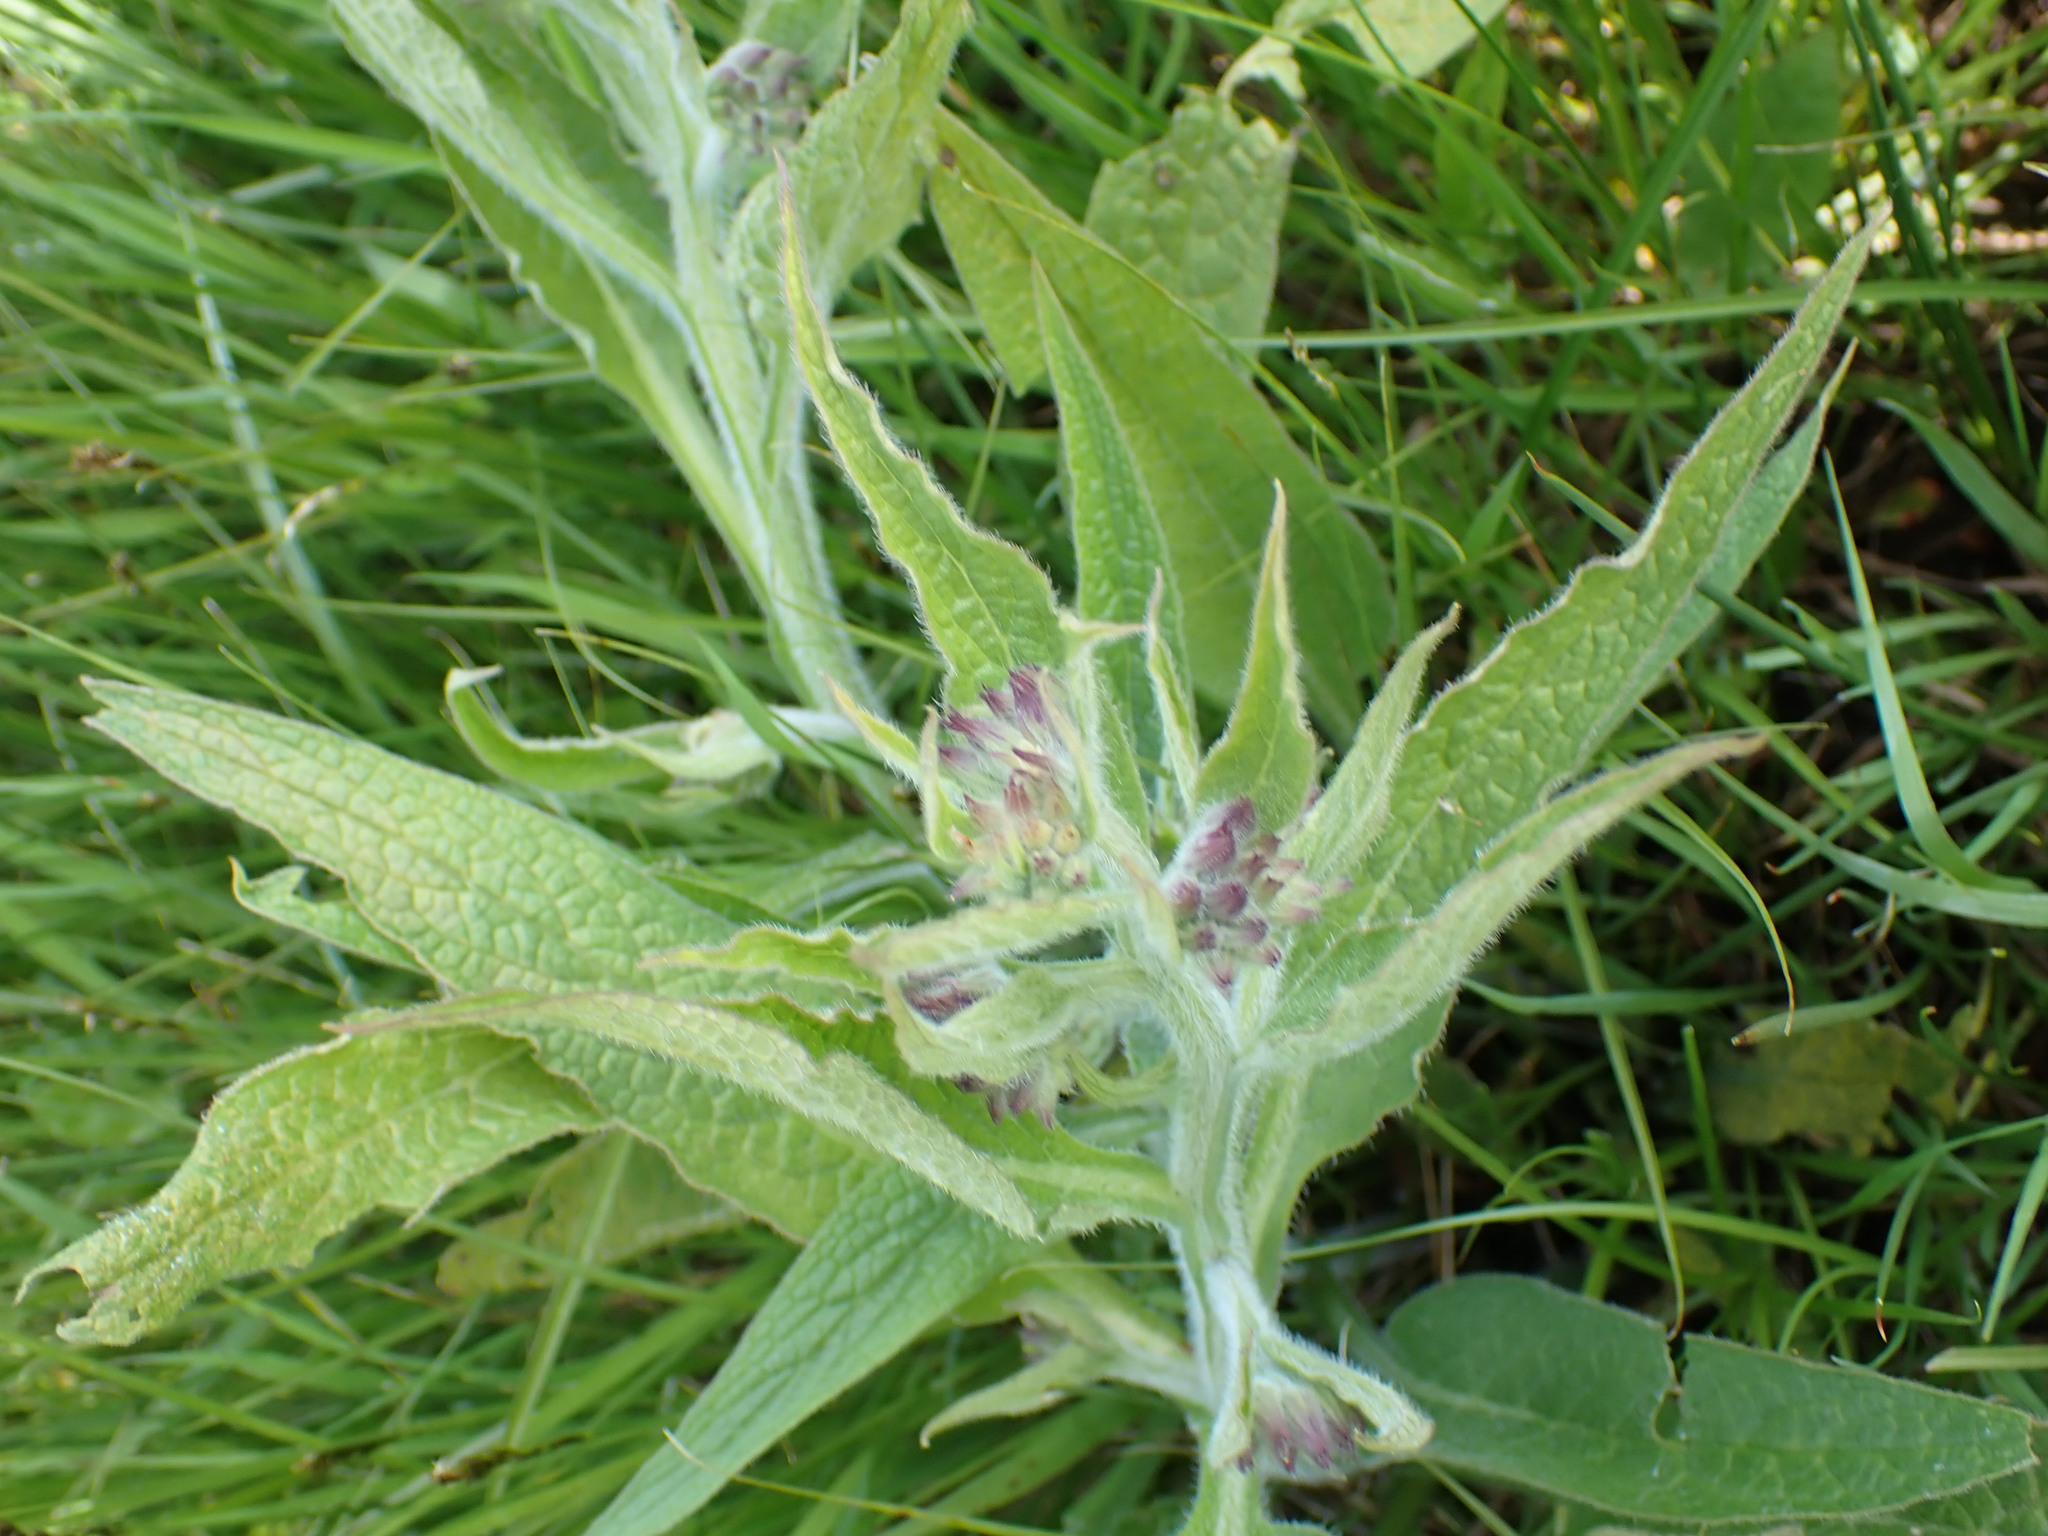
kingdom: Plantae
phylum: Tracheophyta
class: Magnoliopsida
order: Boraginales
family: Boraginaceae
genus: Symphytum
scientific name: Symphytum officinale
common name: Common comfrey
